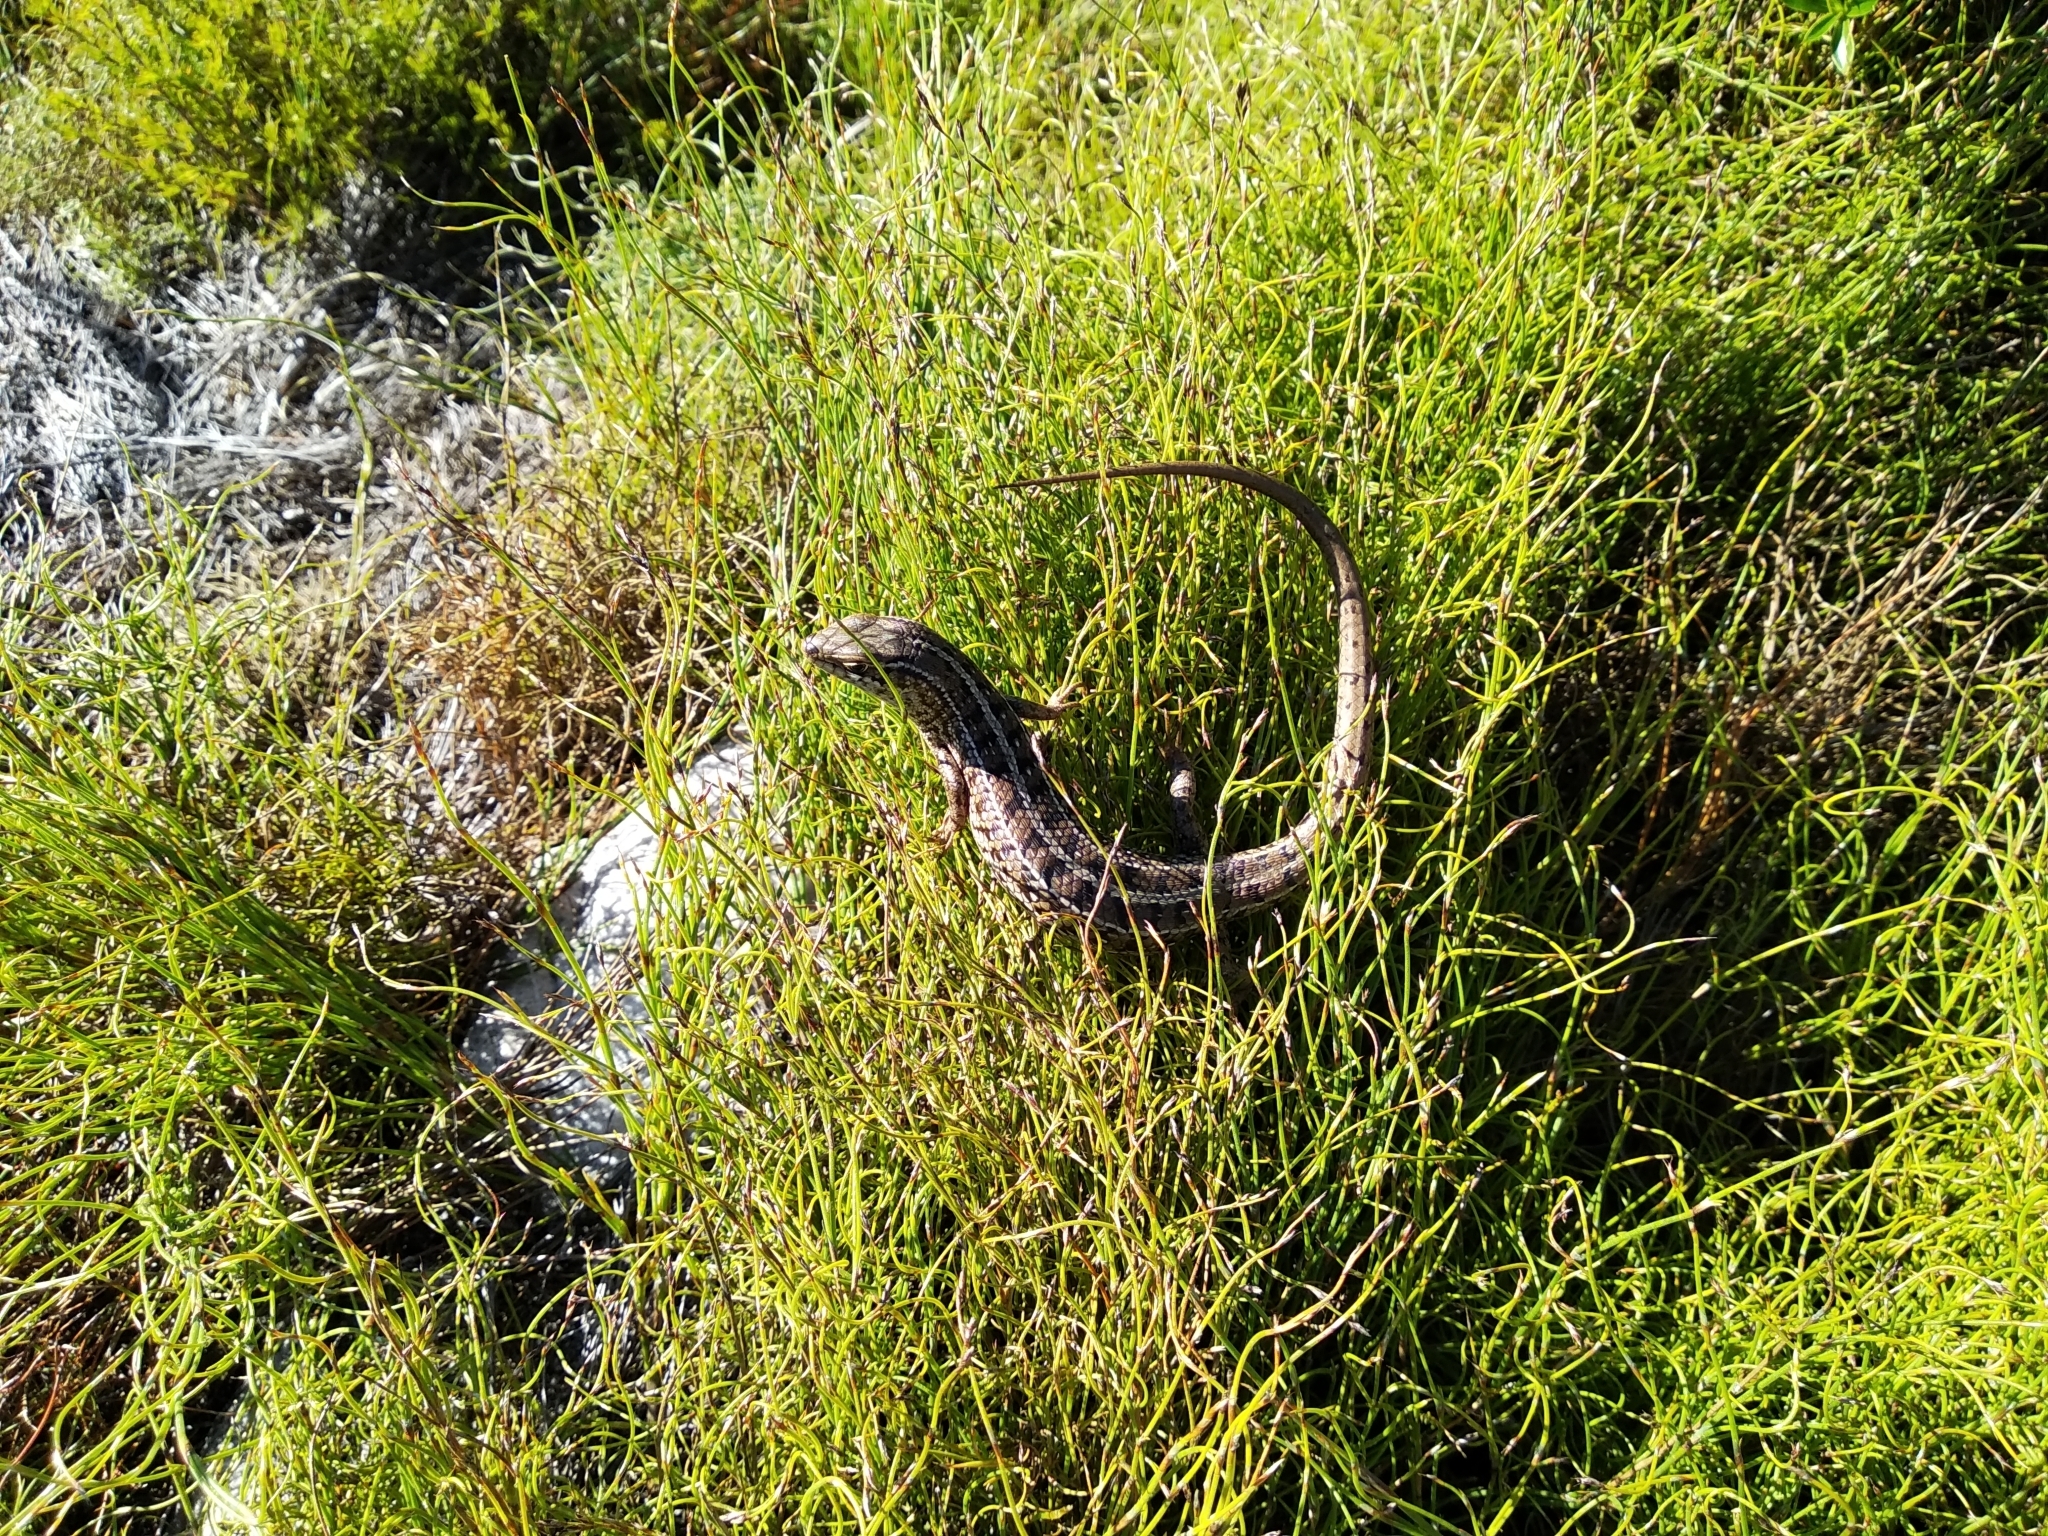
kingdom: Animalia
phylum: Chordata
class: Squamata
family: Scincidae
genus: Trachylepis
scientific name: Trachylepis capensis
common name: Cape skink
